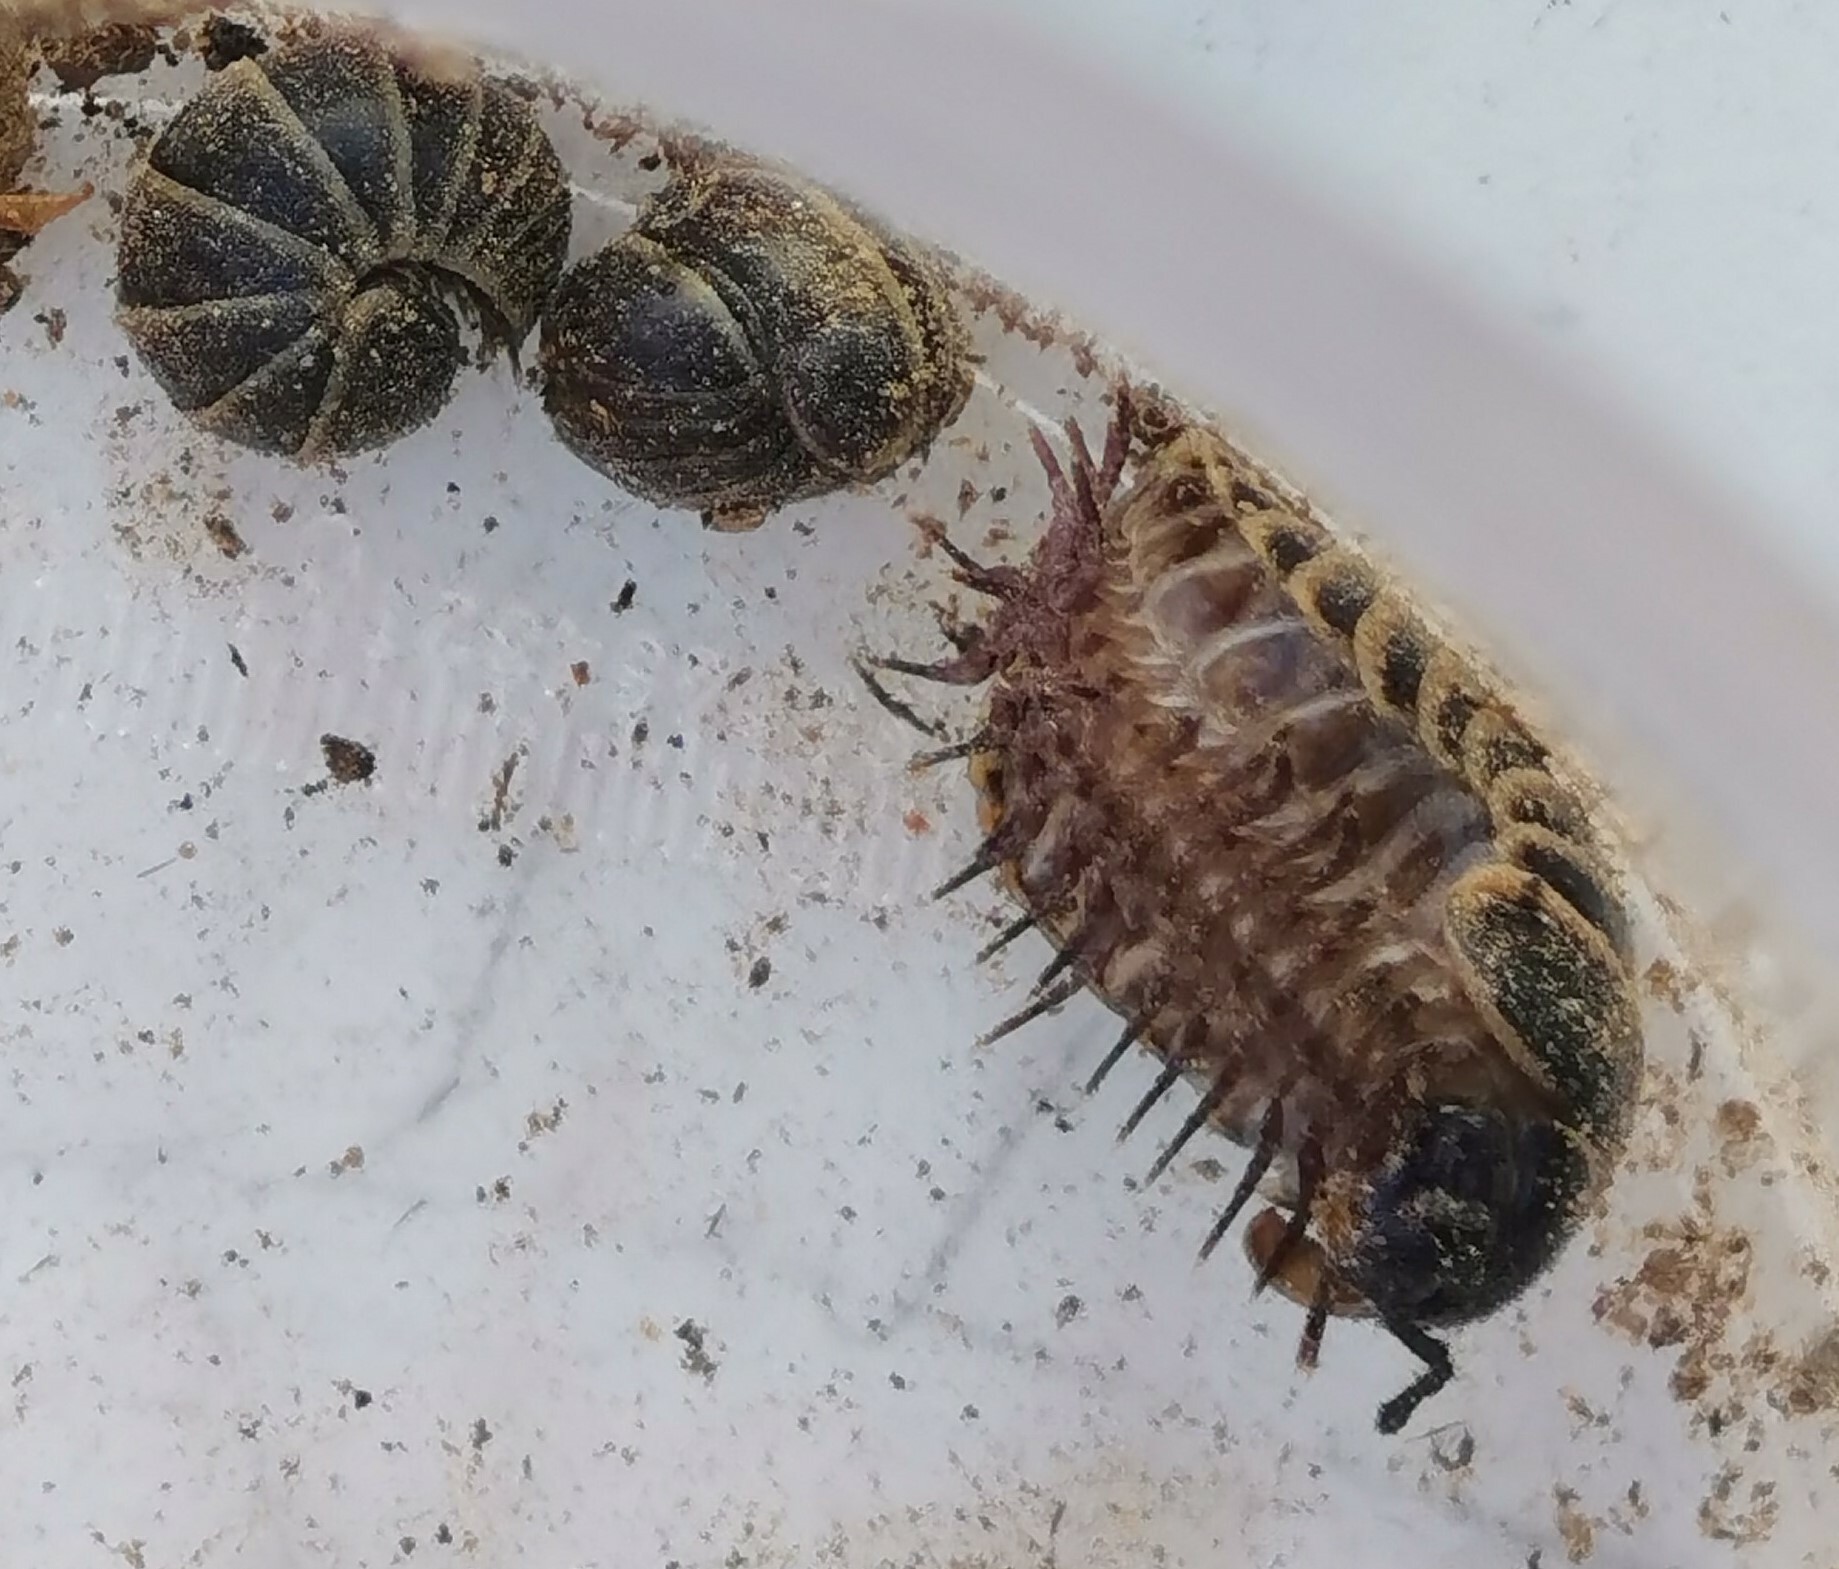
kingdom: Animalia
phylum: Arthropoda
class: Diplopoda
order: Glomerida
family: Glomeridae
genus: Glomeris
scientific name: Glomeris marginata
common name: Bordered pill millipede
